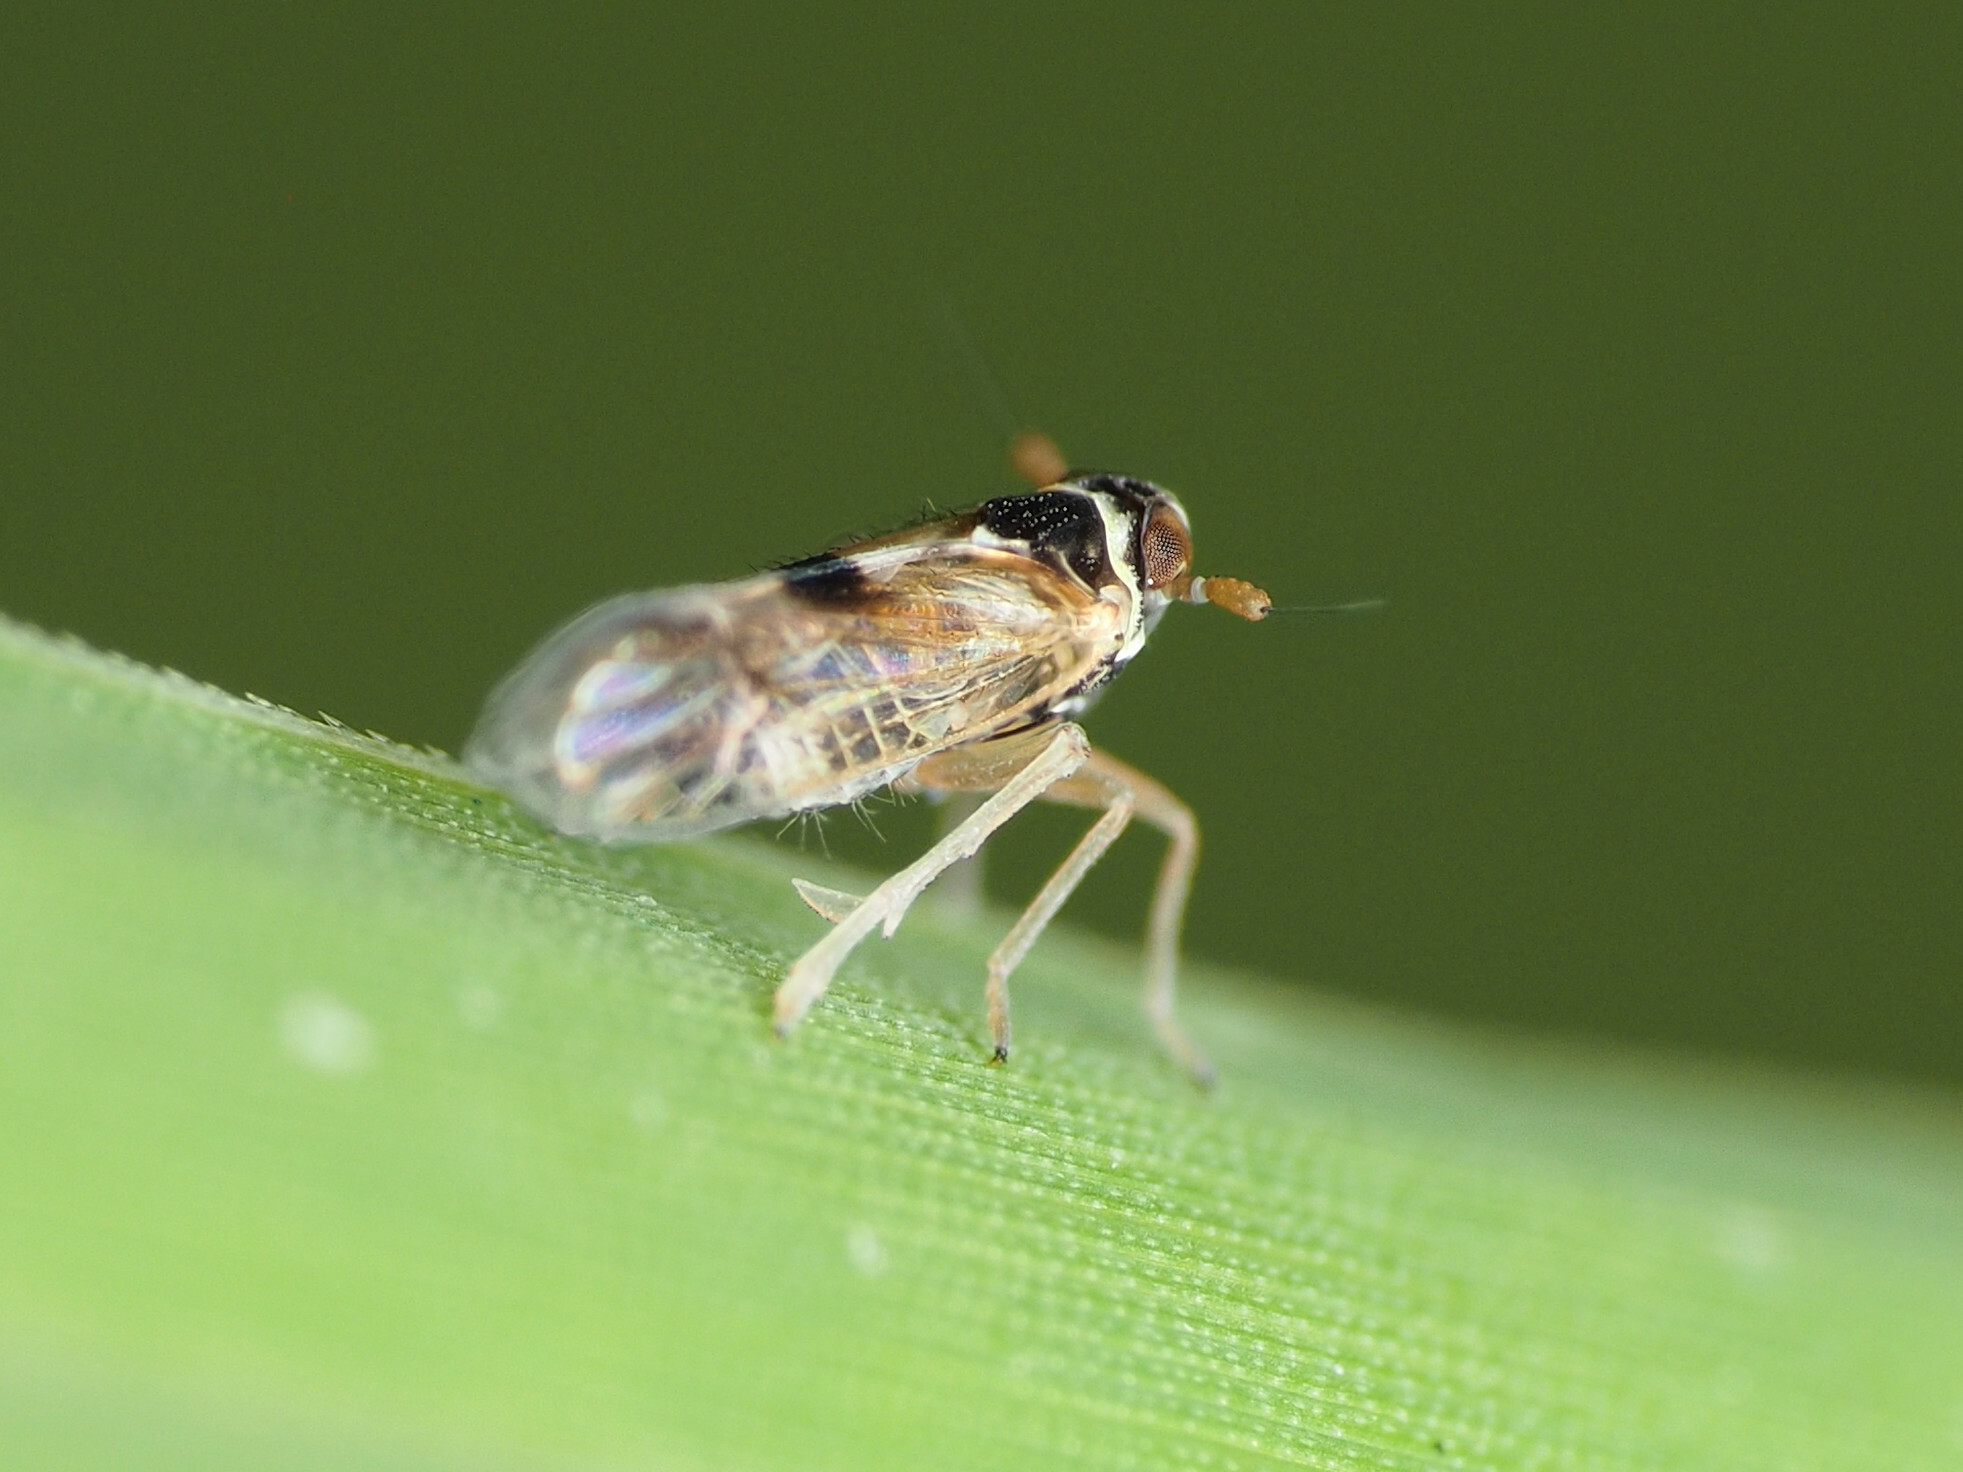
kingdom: Animalia
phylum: Arthropoda
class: Insecta
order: Hemiptera
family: Delphacidae
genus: Chionomus
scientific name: Chionomus
